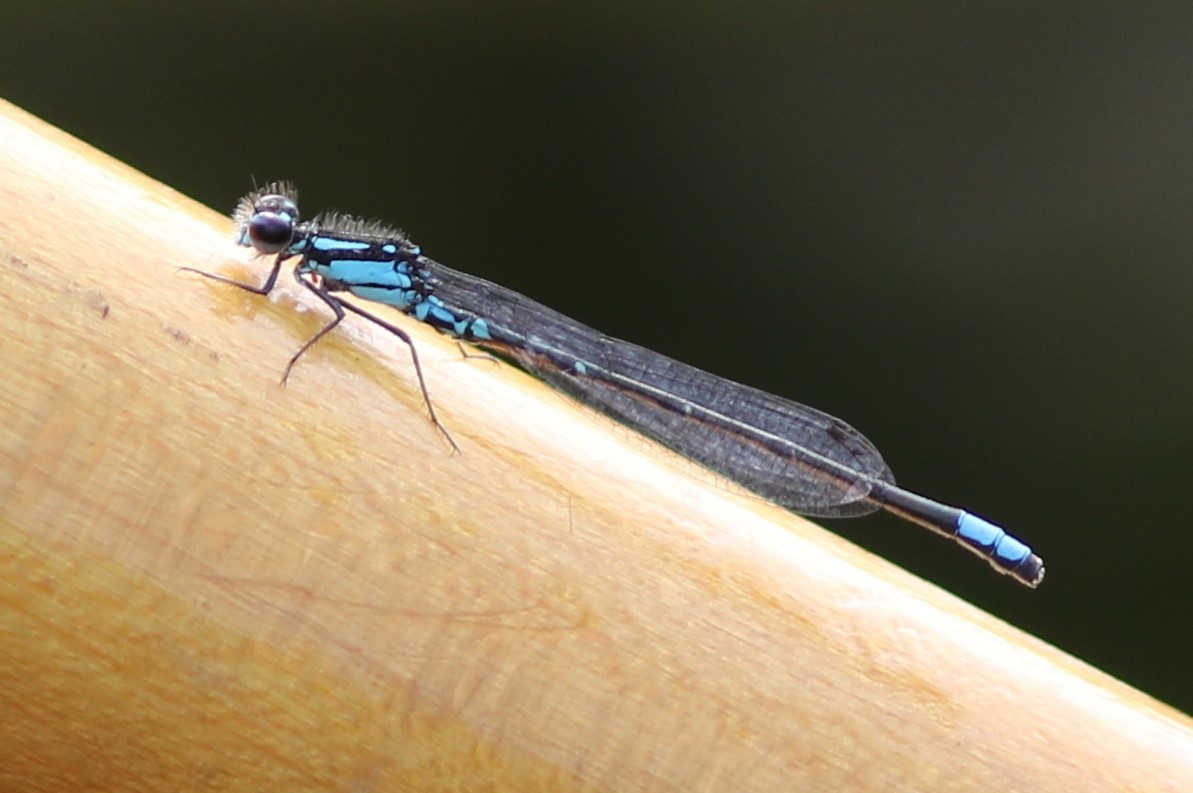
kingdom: Animalia
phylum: Arthropoda
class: Insecta
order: Odonata
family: Coenagrionidae
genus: Enallagma
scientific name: Enallagma geminatum
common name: Skimming bluet
